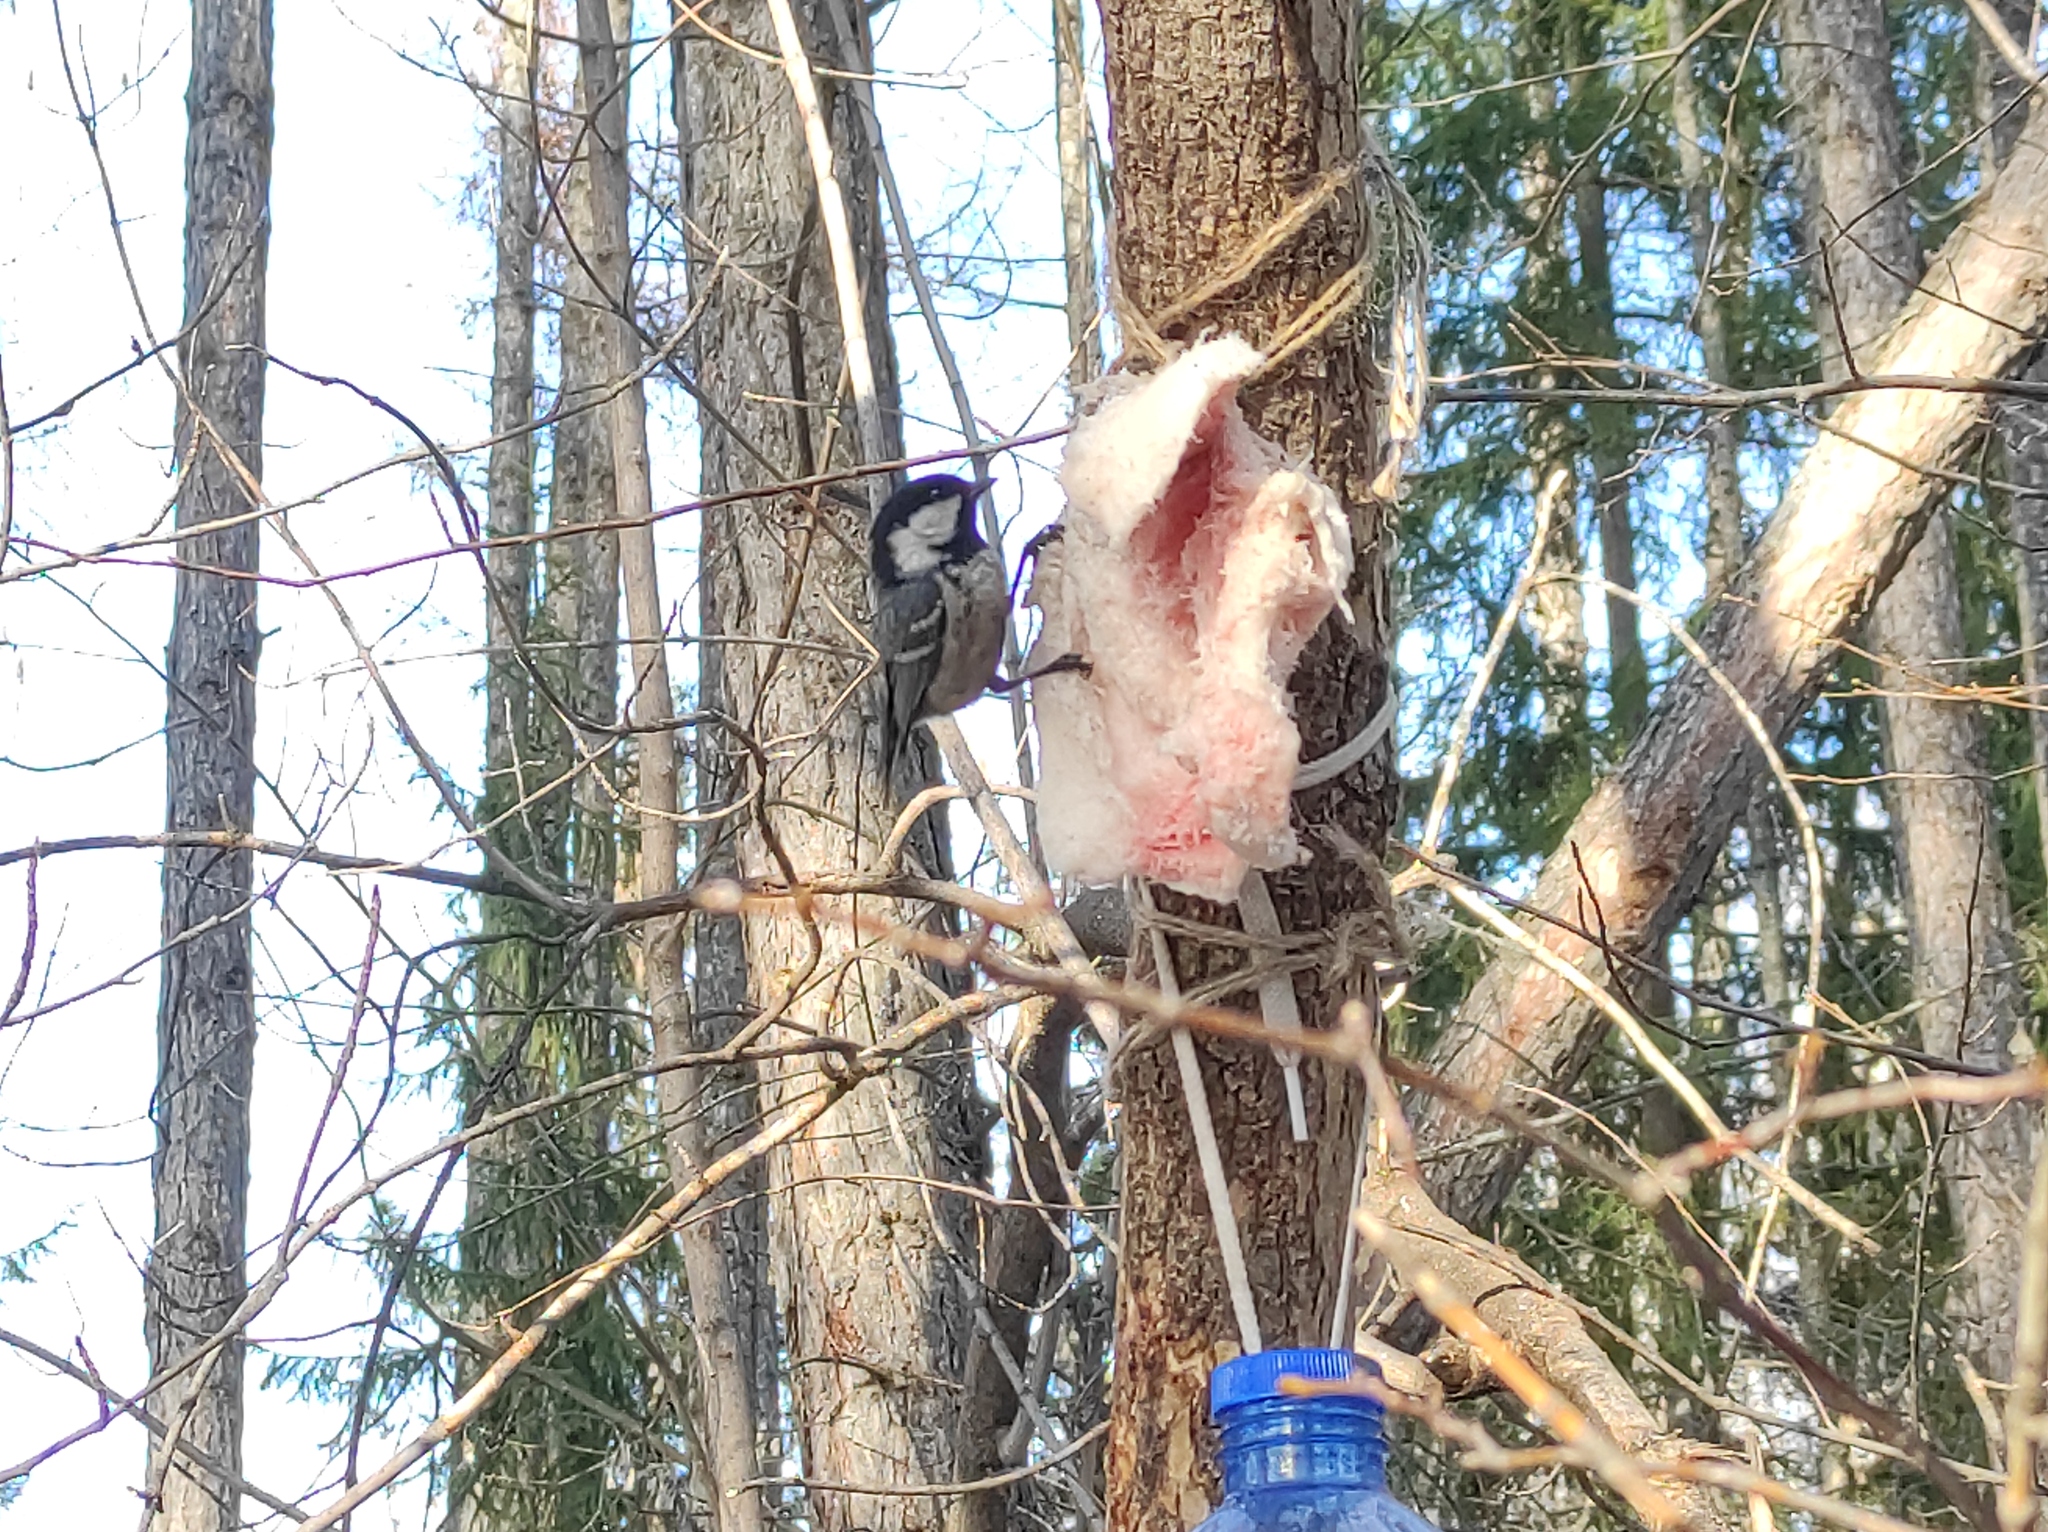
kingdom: Animalia
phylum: Chordata
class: Aves
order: Passeriformes
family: Paridae
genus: Periparus
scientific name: Periparus ater
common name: Coal tit
